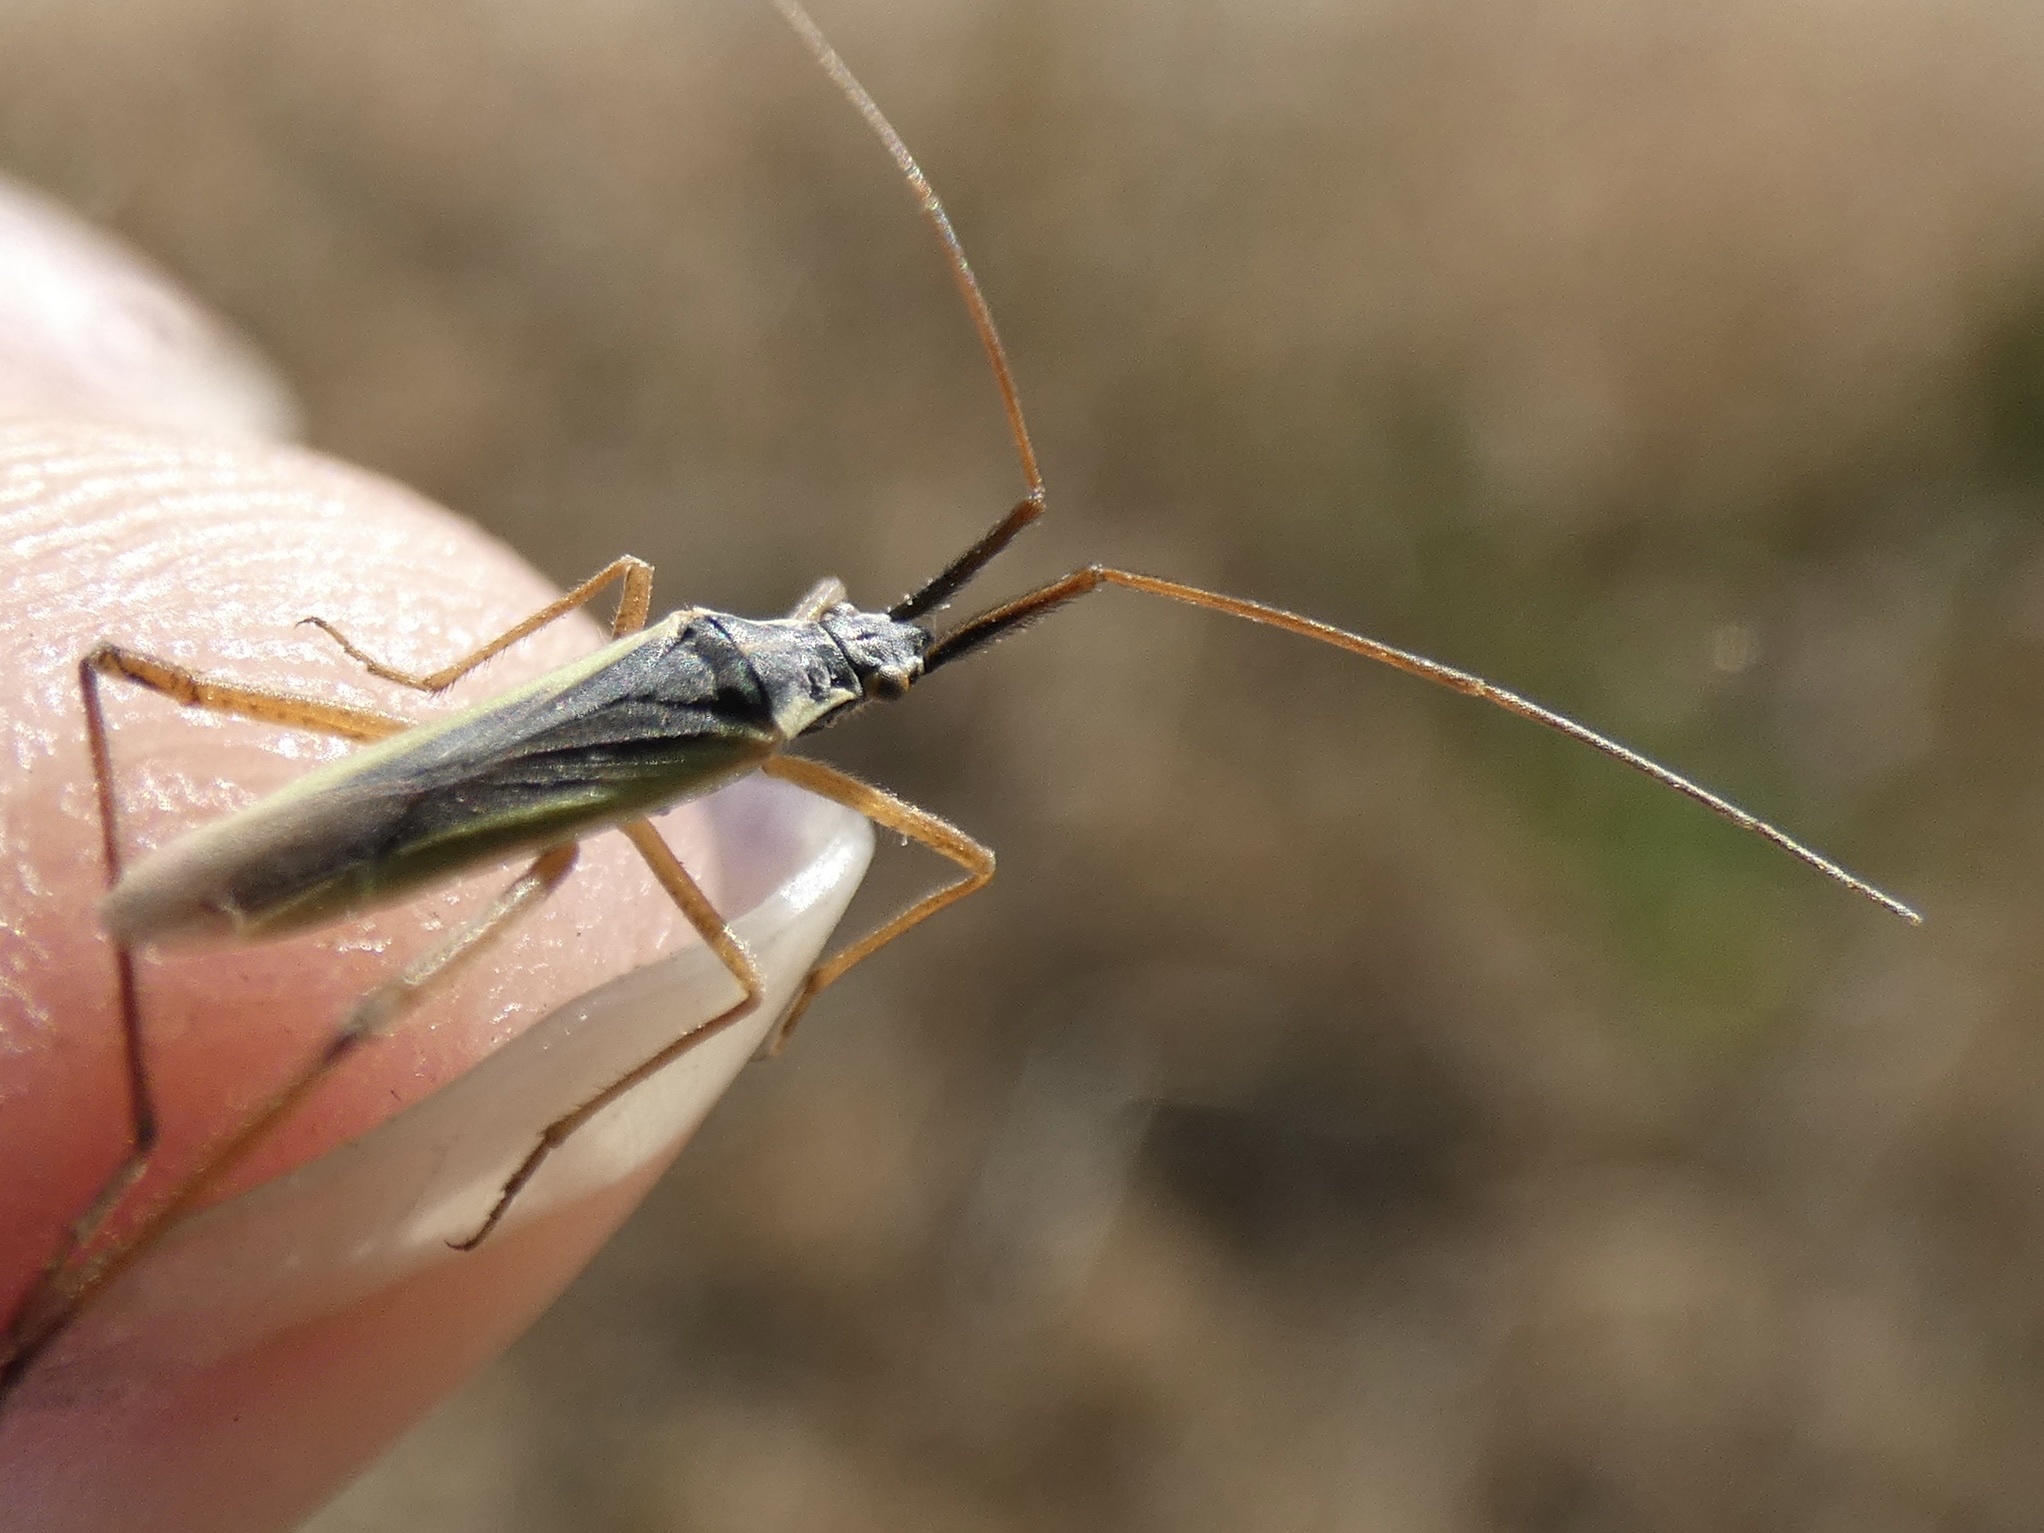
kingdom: Animalia
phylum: Arthropoda
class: Insecta
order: Hemiptera
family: Miridae
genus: Notostira
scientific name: Notostira elongata
